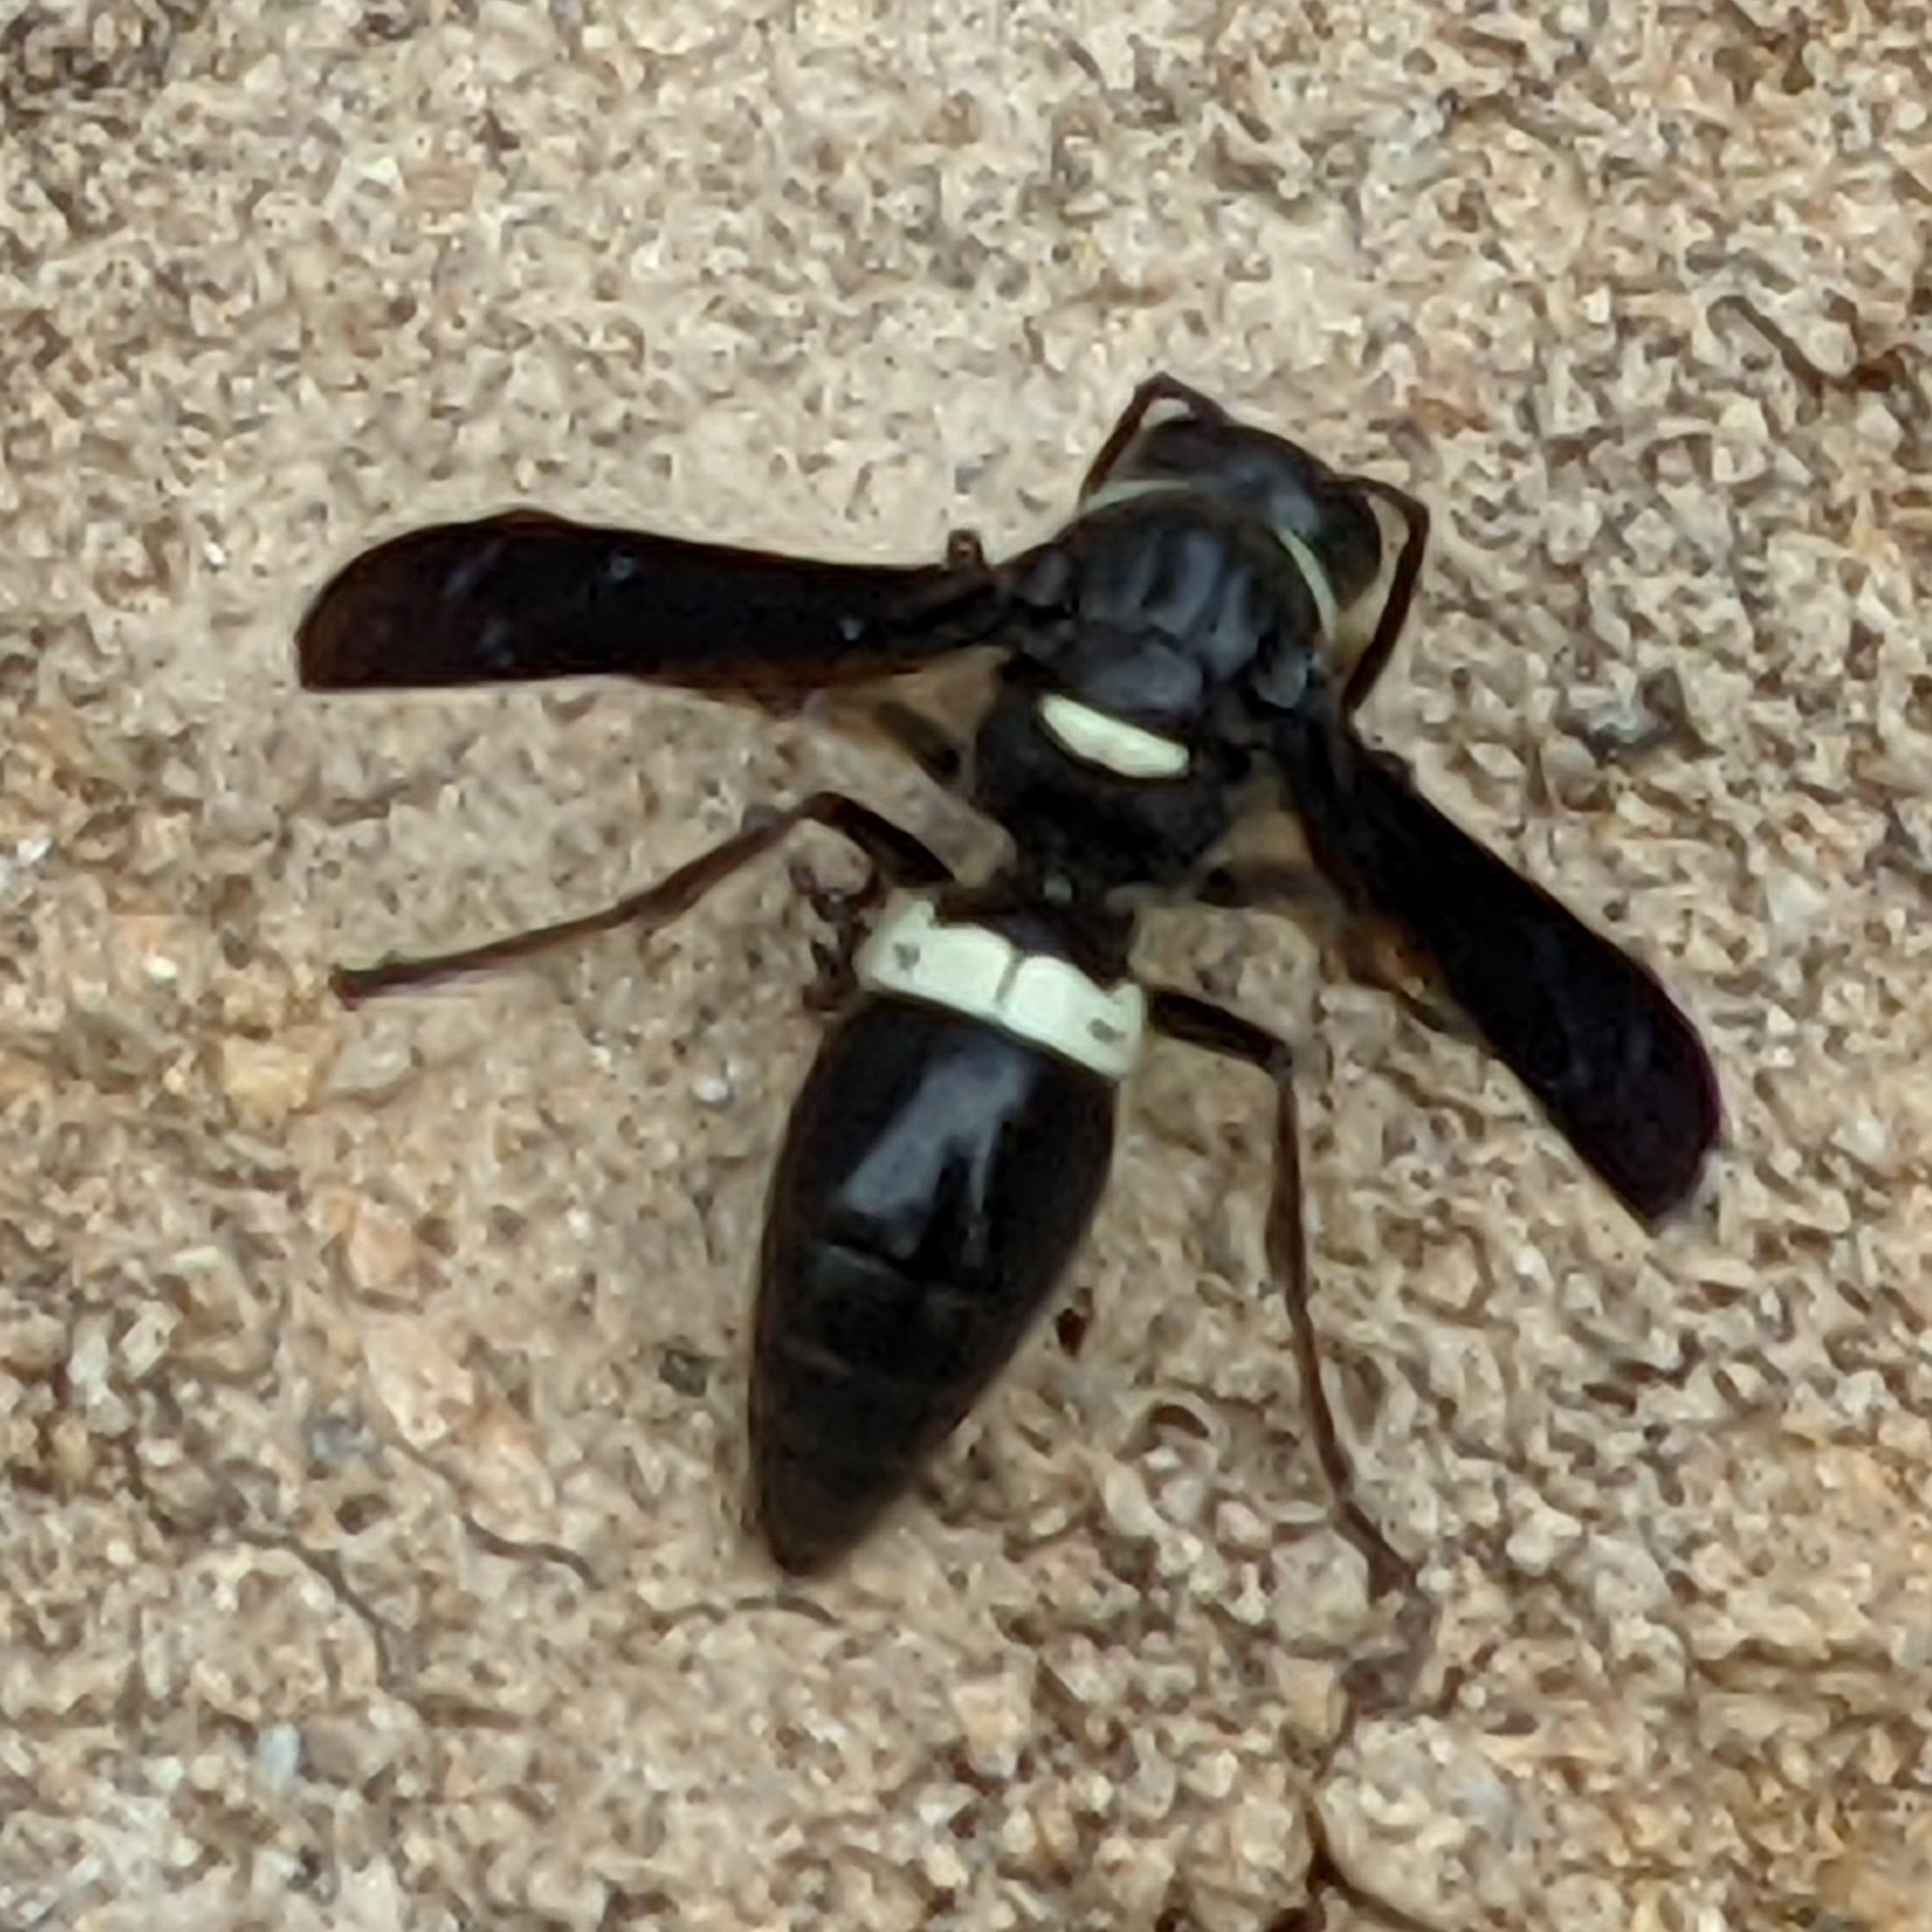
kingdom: Animalia
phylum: Arthropoda
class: Insecta
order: Hymenoptera
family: Eumenidae
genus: Monobia
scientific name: Monobia quadridens
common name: Four-toothed mason wasp
